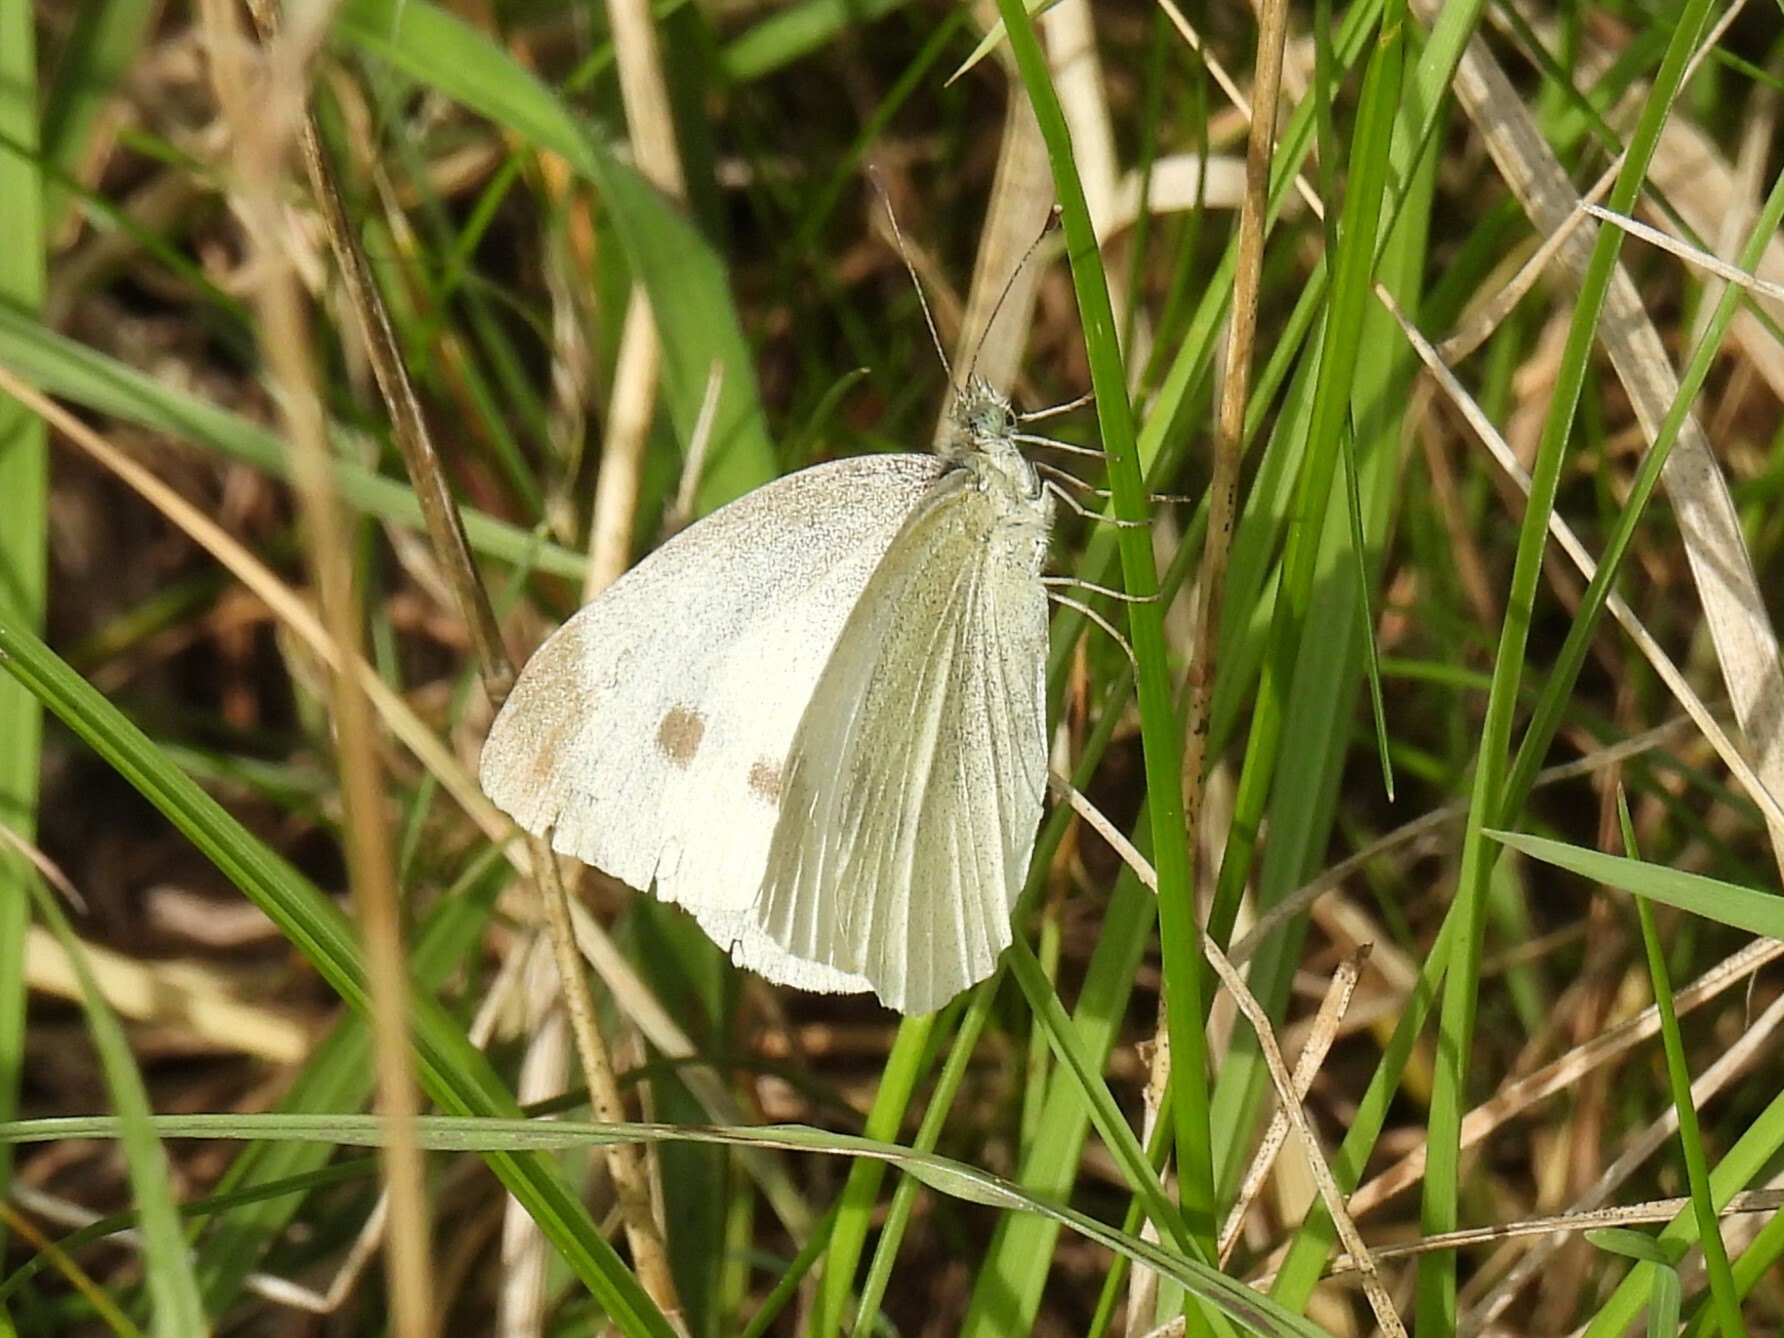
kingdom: Animalia
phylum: Arthropoda
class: Insecta
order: Lepidoptera
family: Pieridae
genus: Pieris
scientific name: Pieris rapae
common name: Small white
